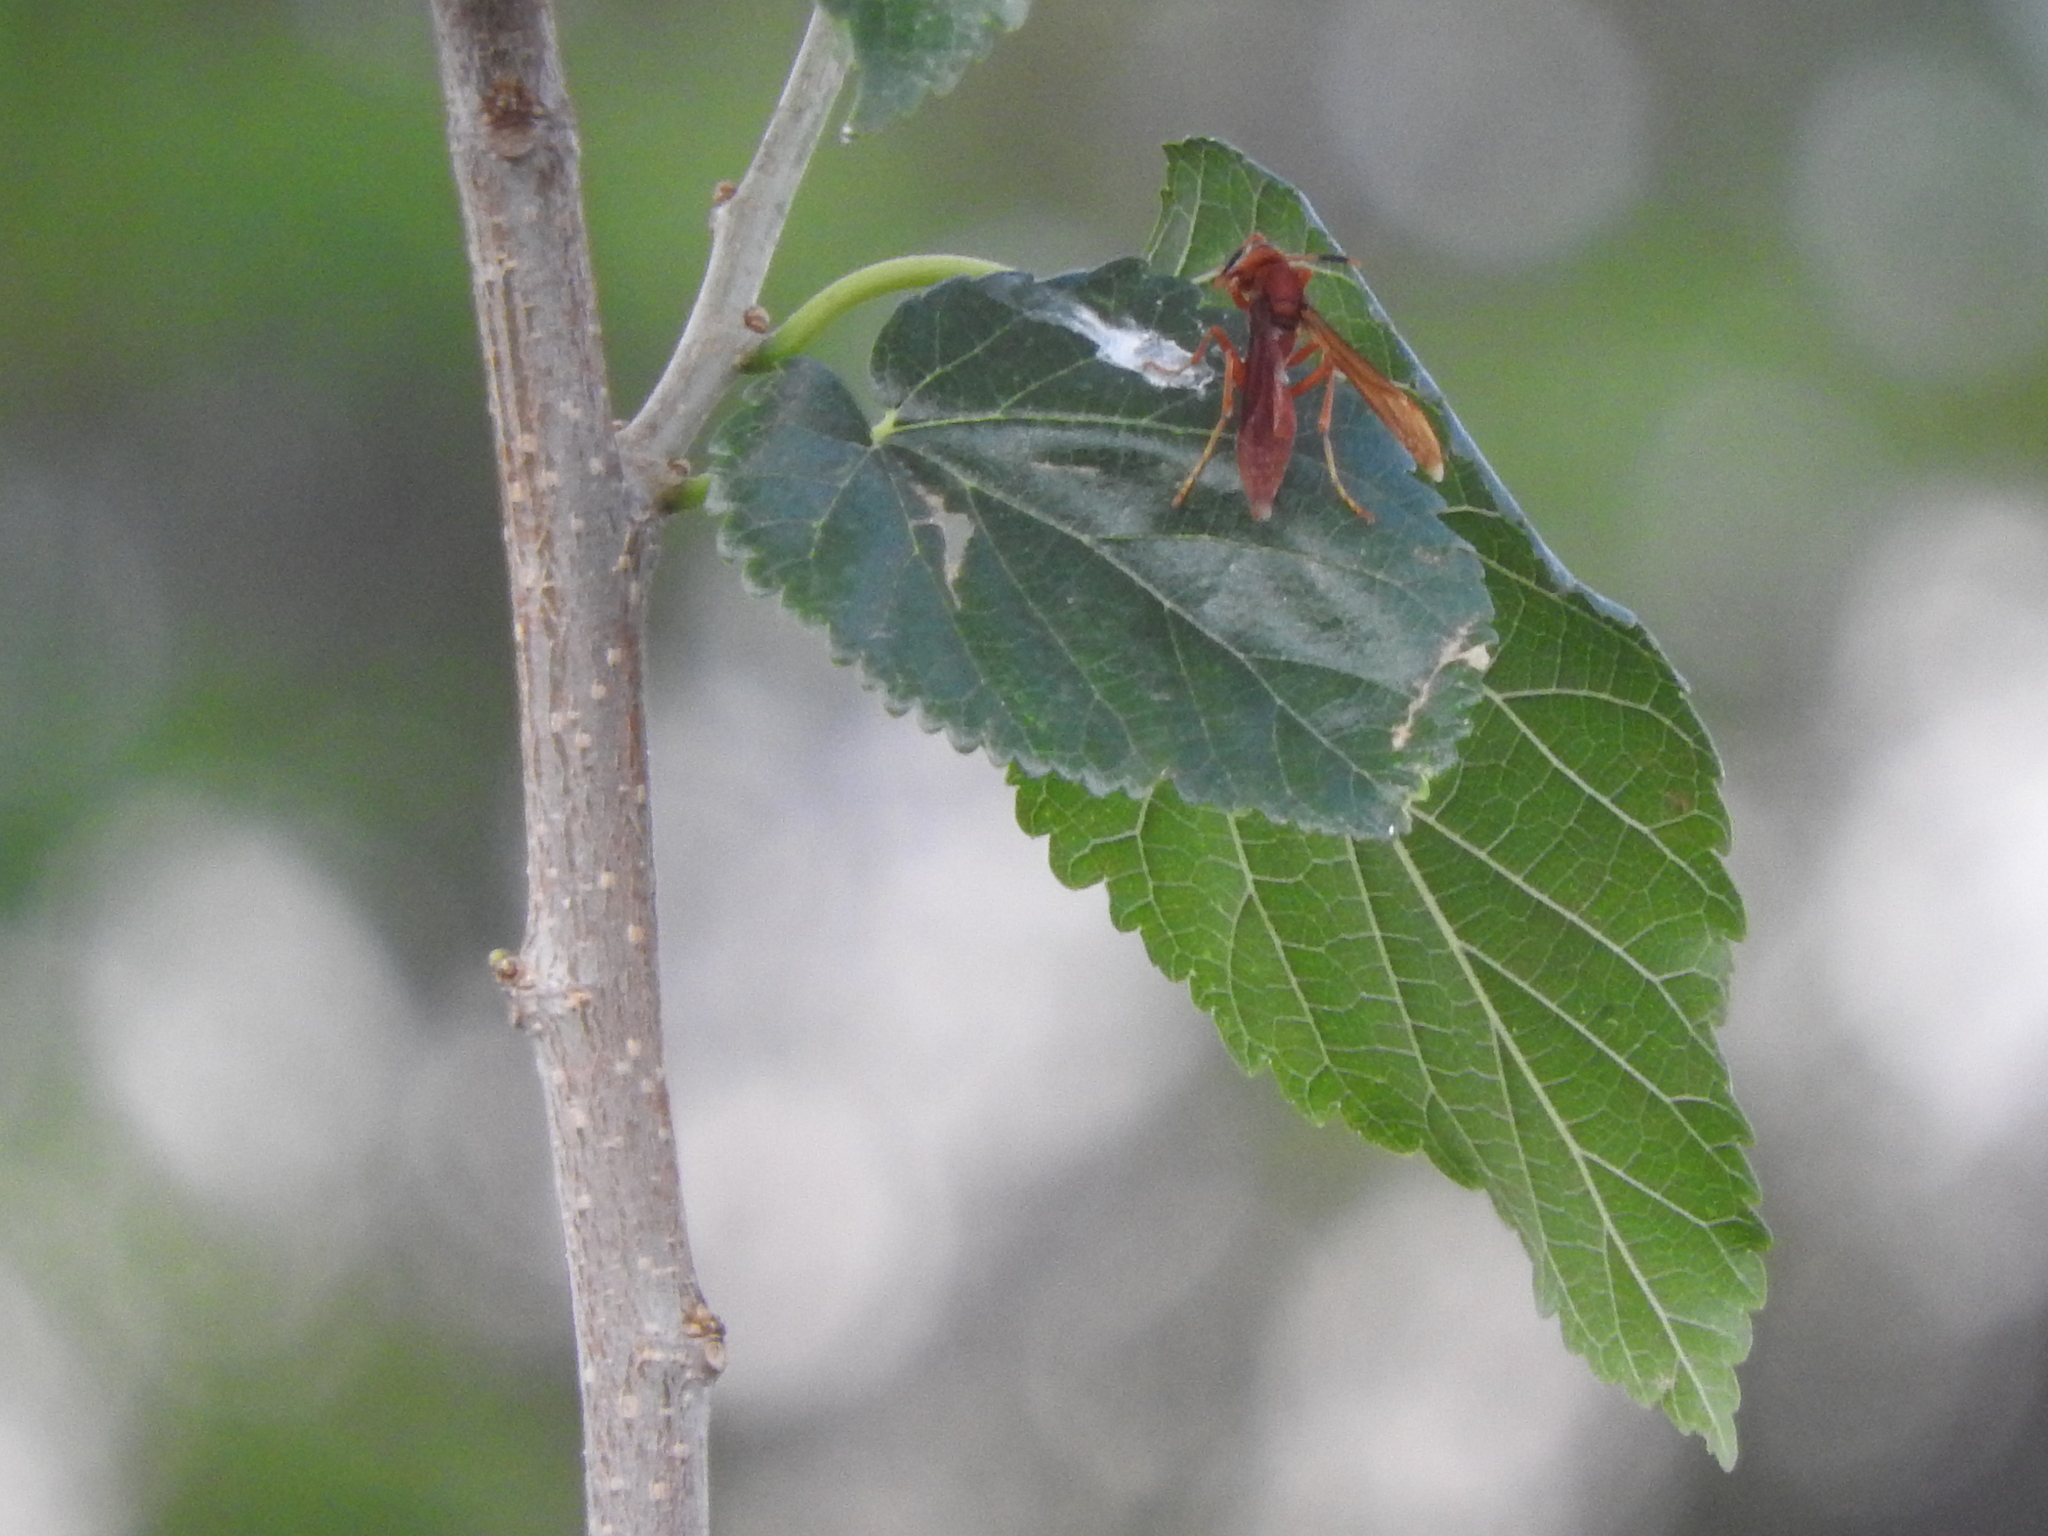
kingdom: Animalia
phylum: Arthropoda
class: Insecta
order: Hymenoptera
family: Eumenidae
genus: Polistes
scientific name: Polistes canadensis
